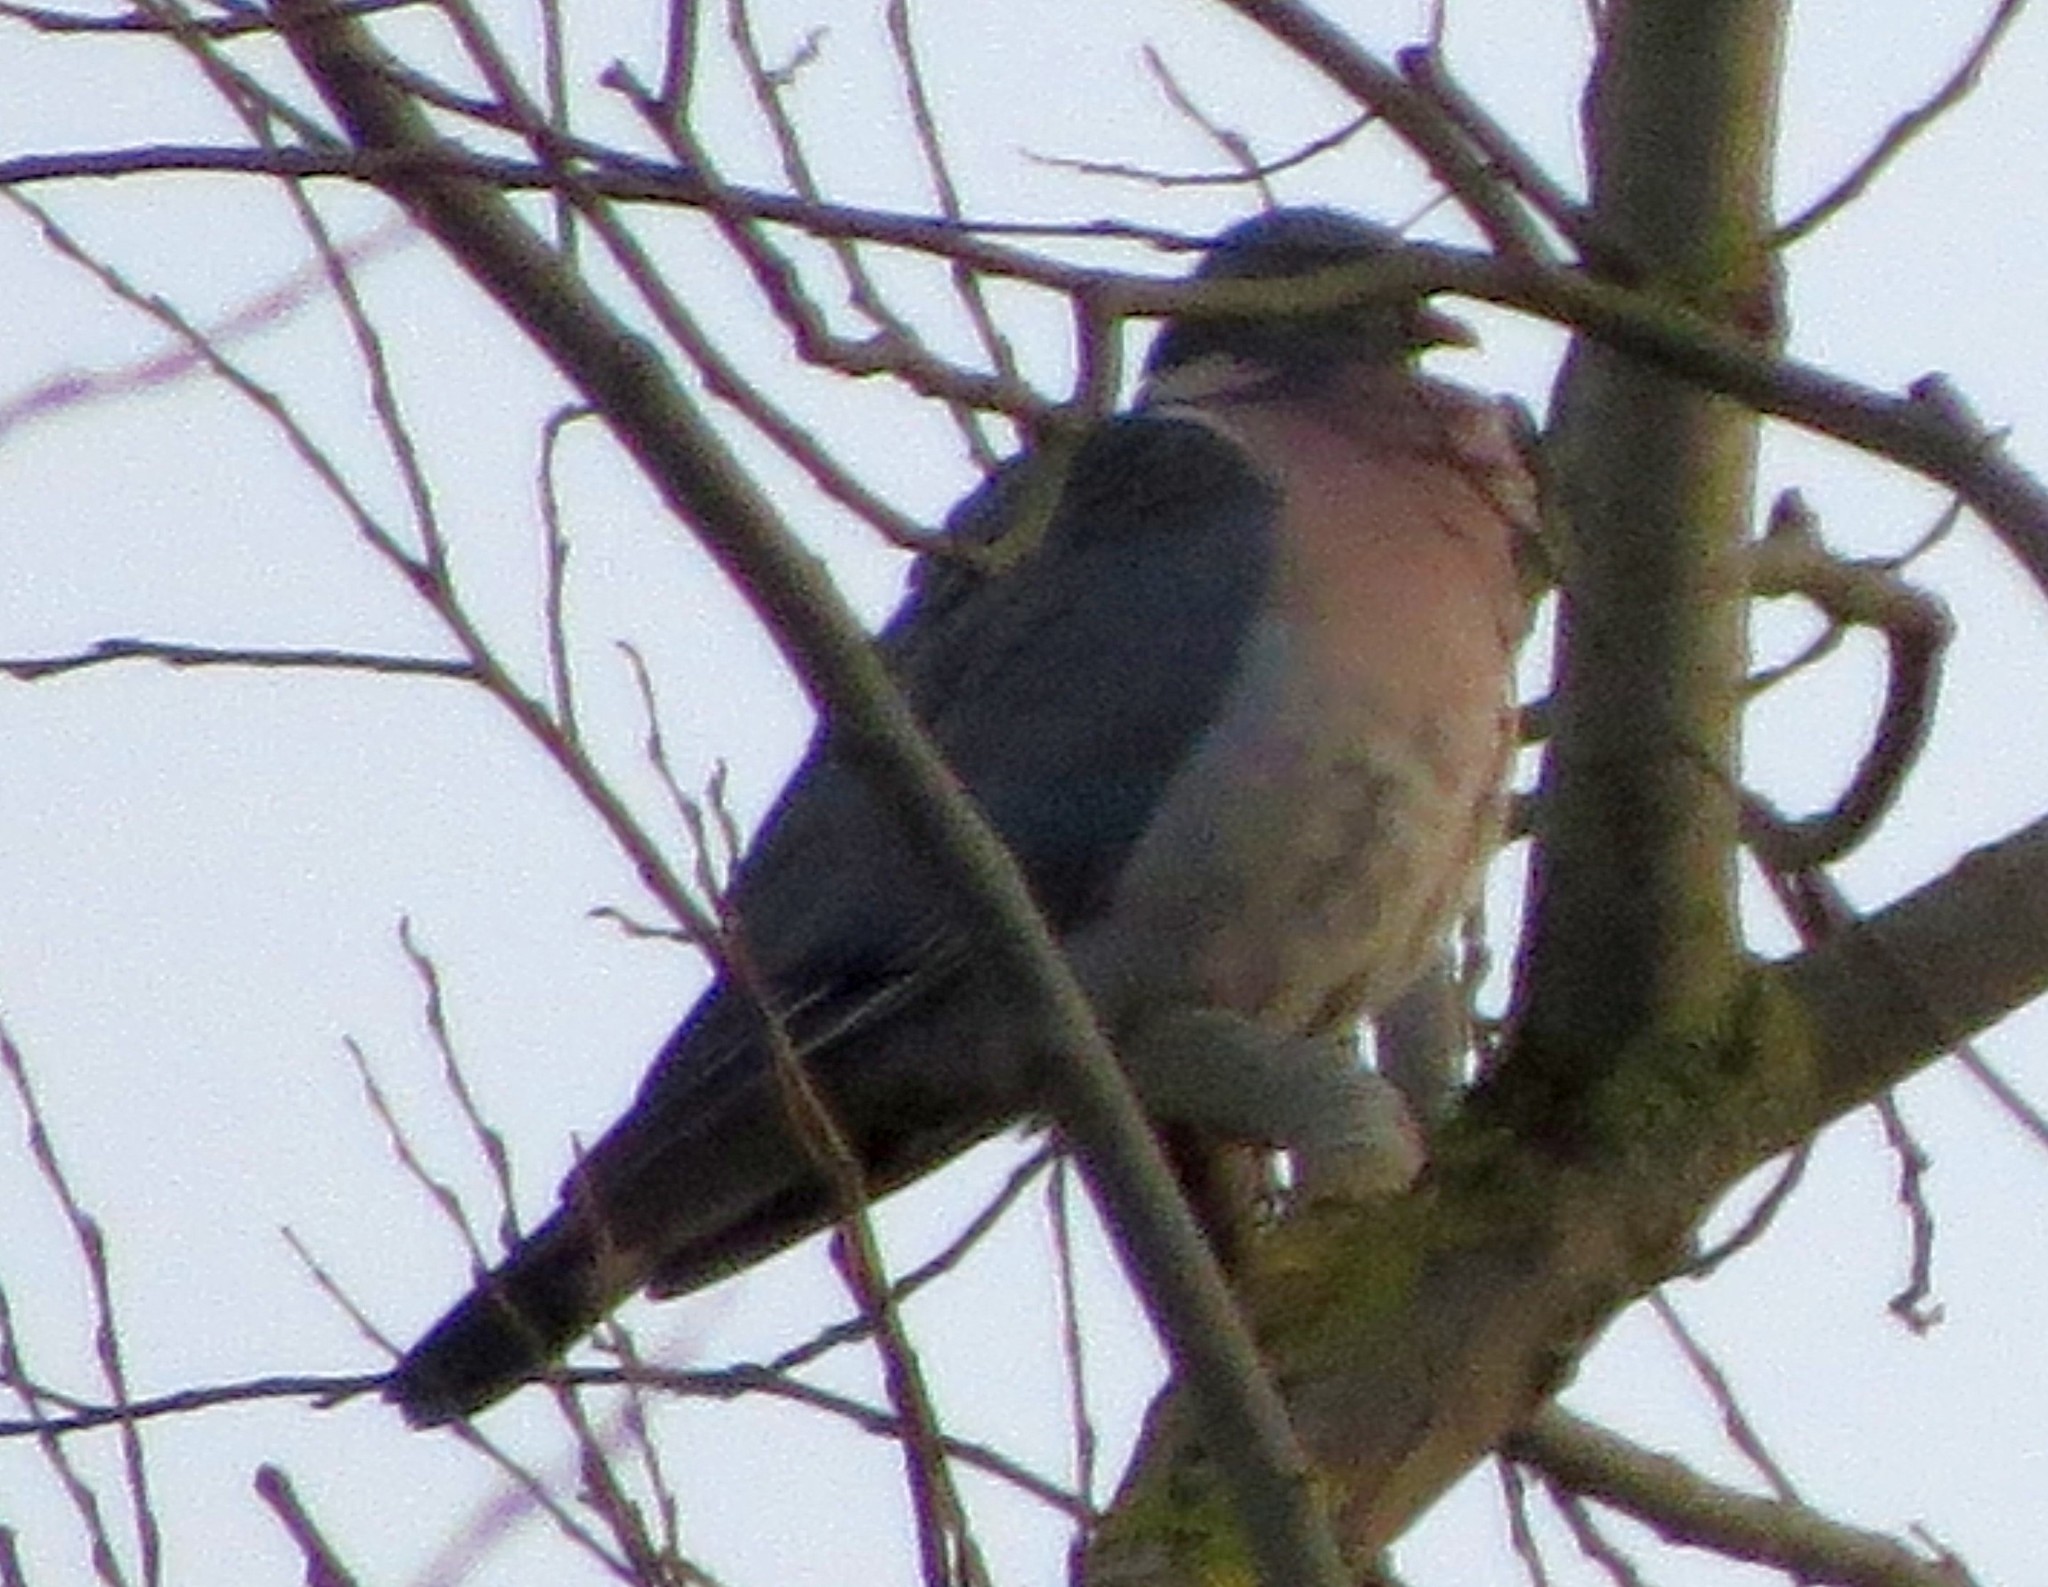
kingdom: Animalia
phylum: Chordata
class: Aves
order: Columbiformes
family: Columbidae
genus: Columba
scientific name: Columba palumbus
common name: Common wood pigeon
